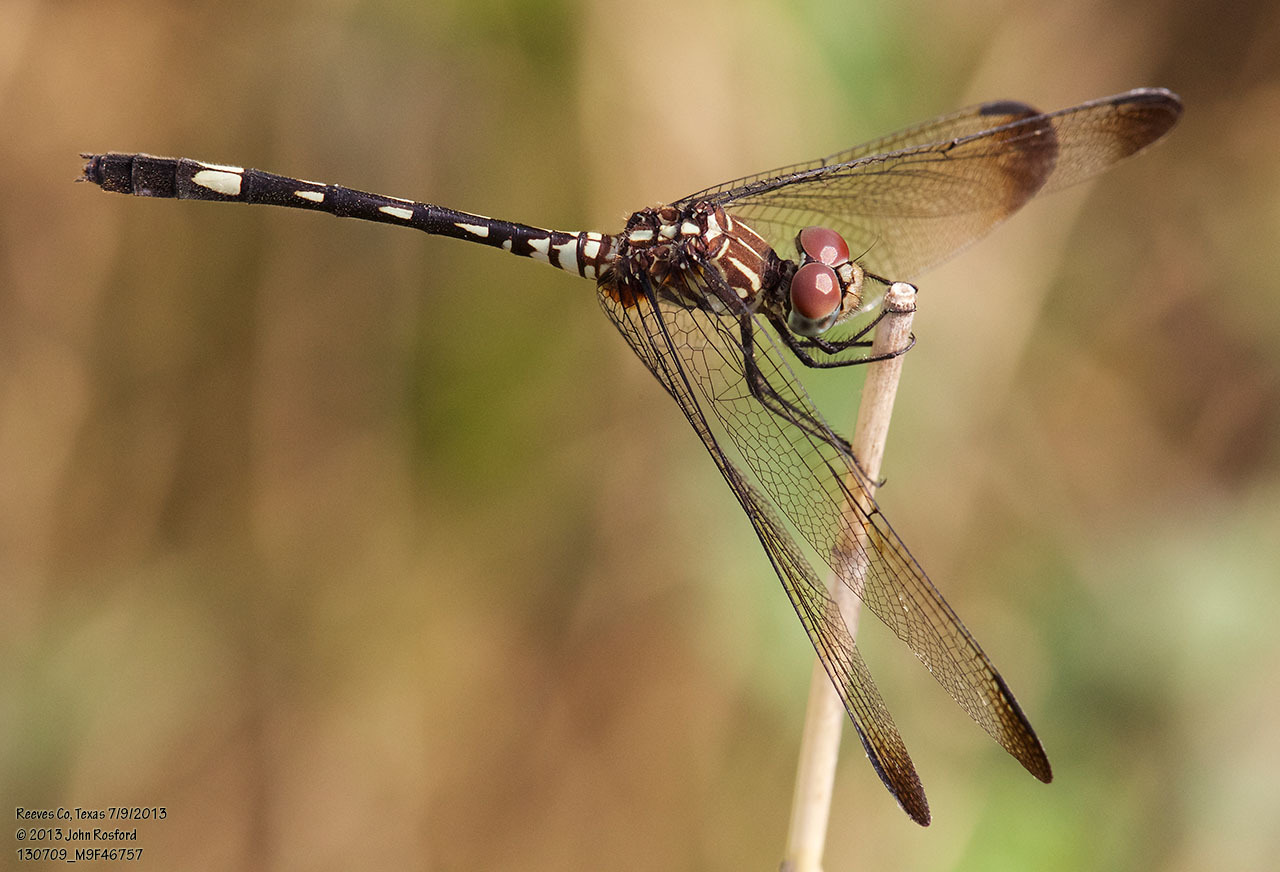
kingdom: Animalia
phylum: Arthropoda
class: Insecta
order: Odonata
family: Libellulidae
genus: Dythemis
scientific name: Dythemis velox
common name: Swift setwing
